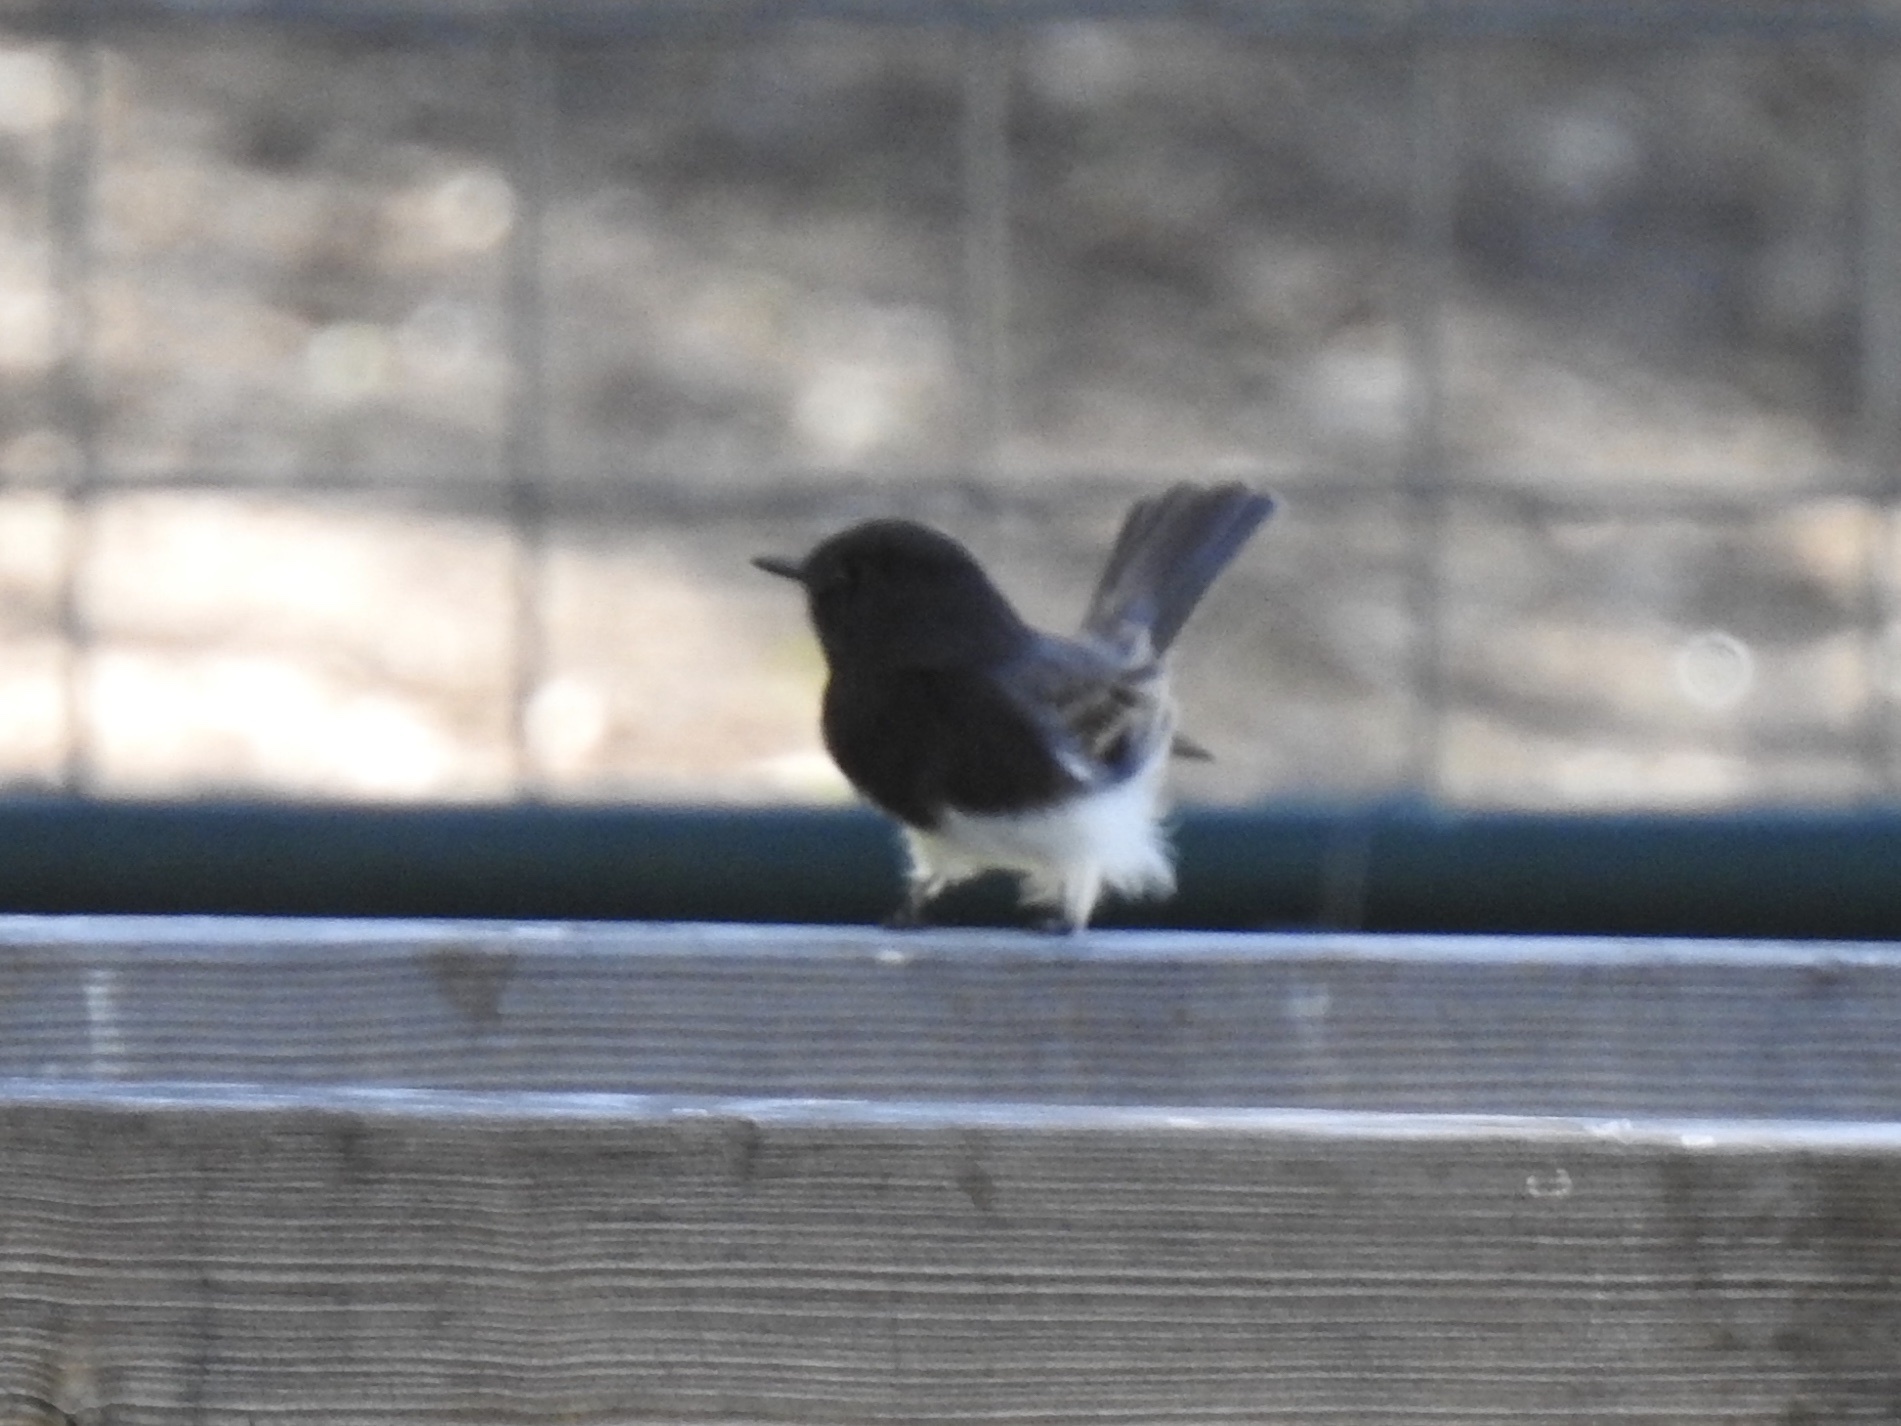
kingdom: Animalia
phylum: Chordata
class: Aves
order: Passeriformes
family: Tyrannidae
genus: Sayornis
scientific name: Sayornis nigricans
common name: Black phoebe
